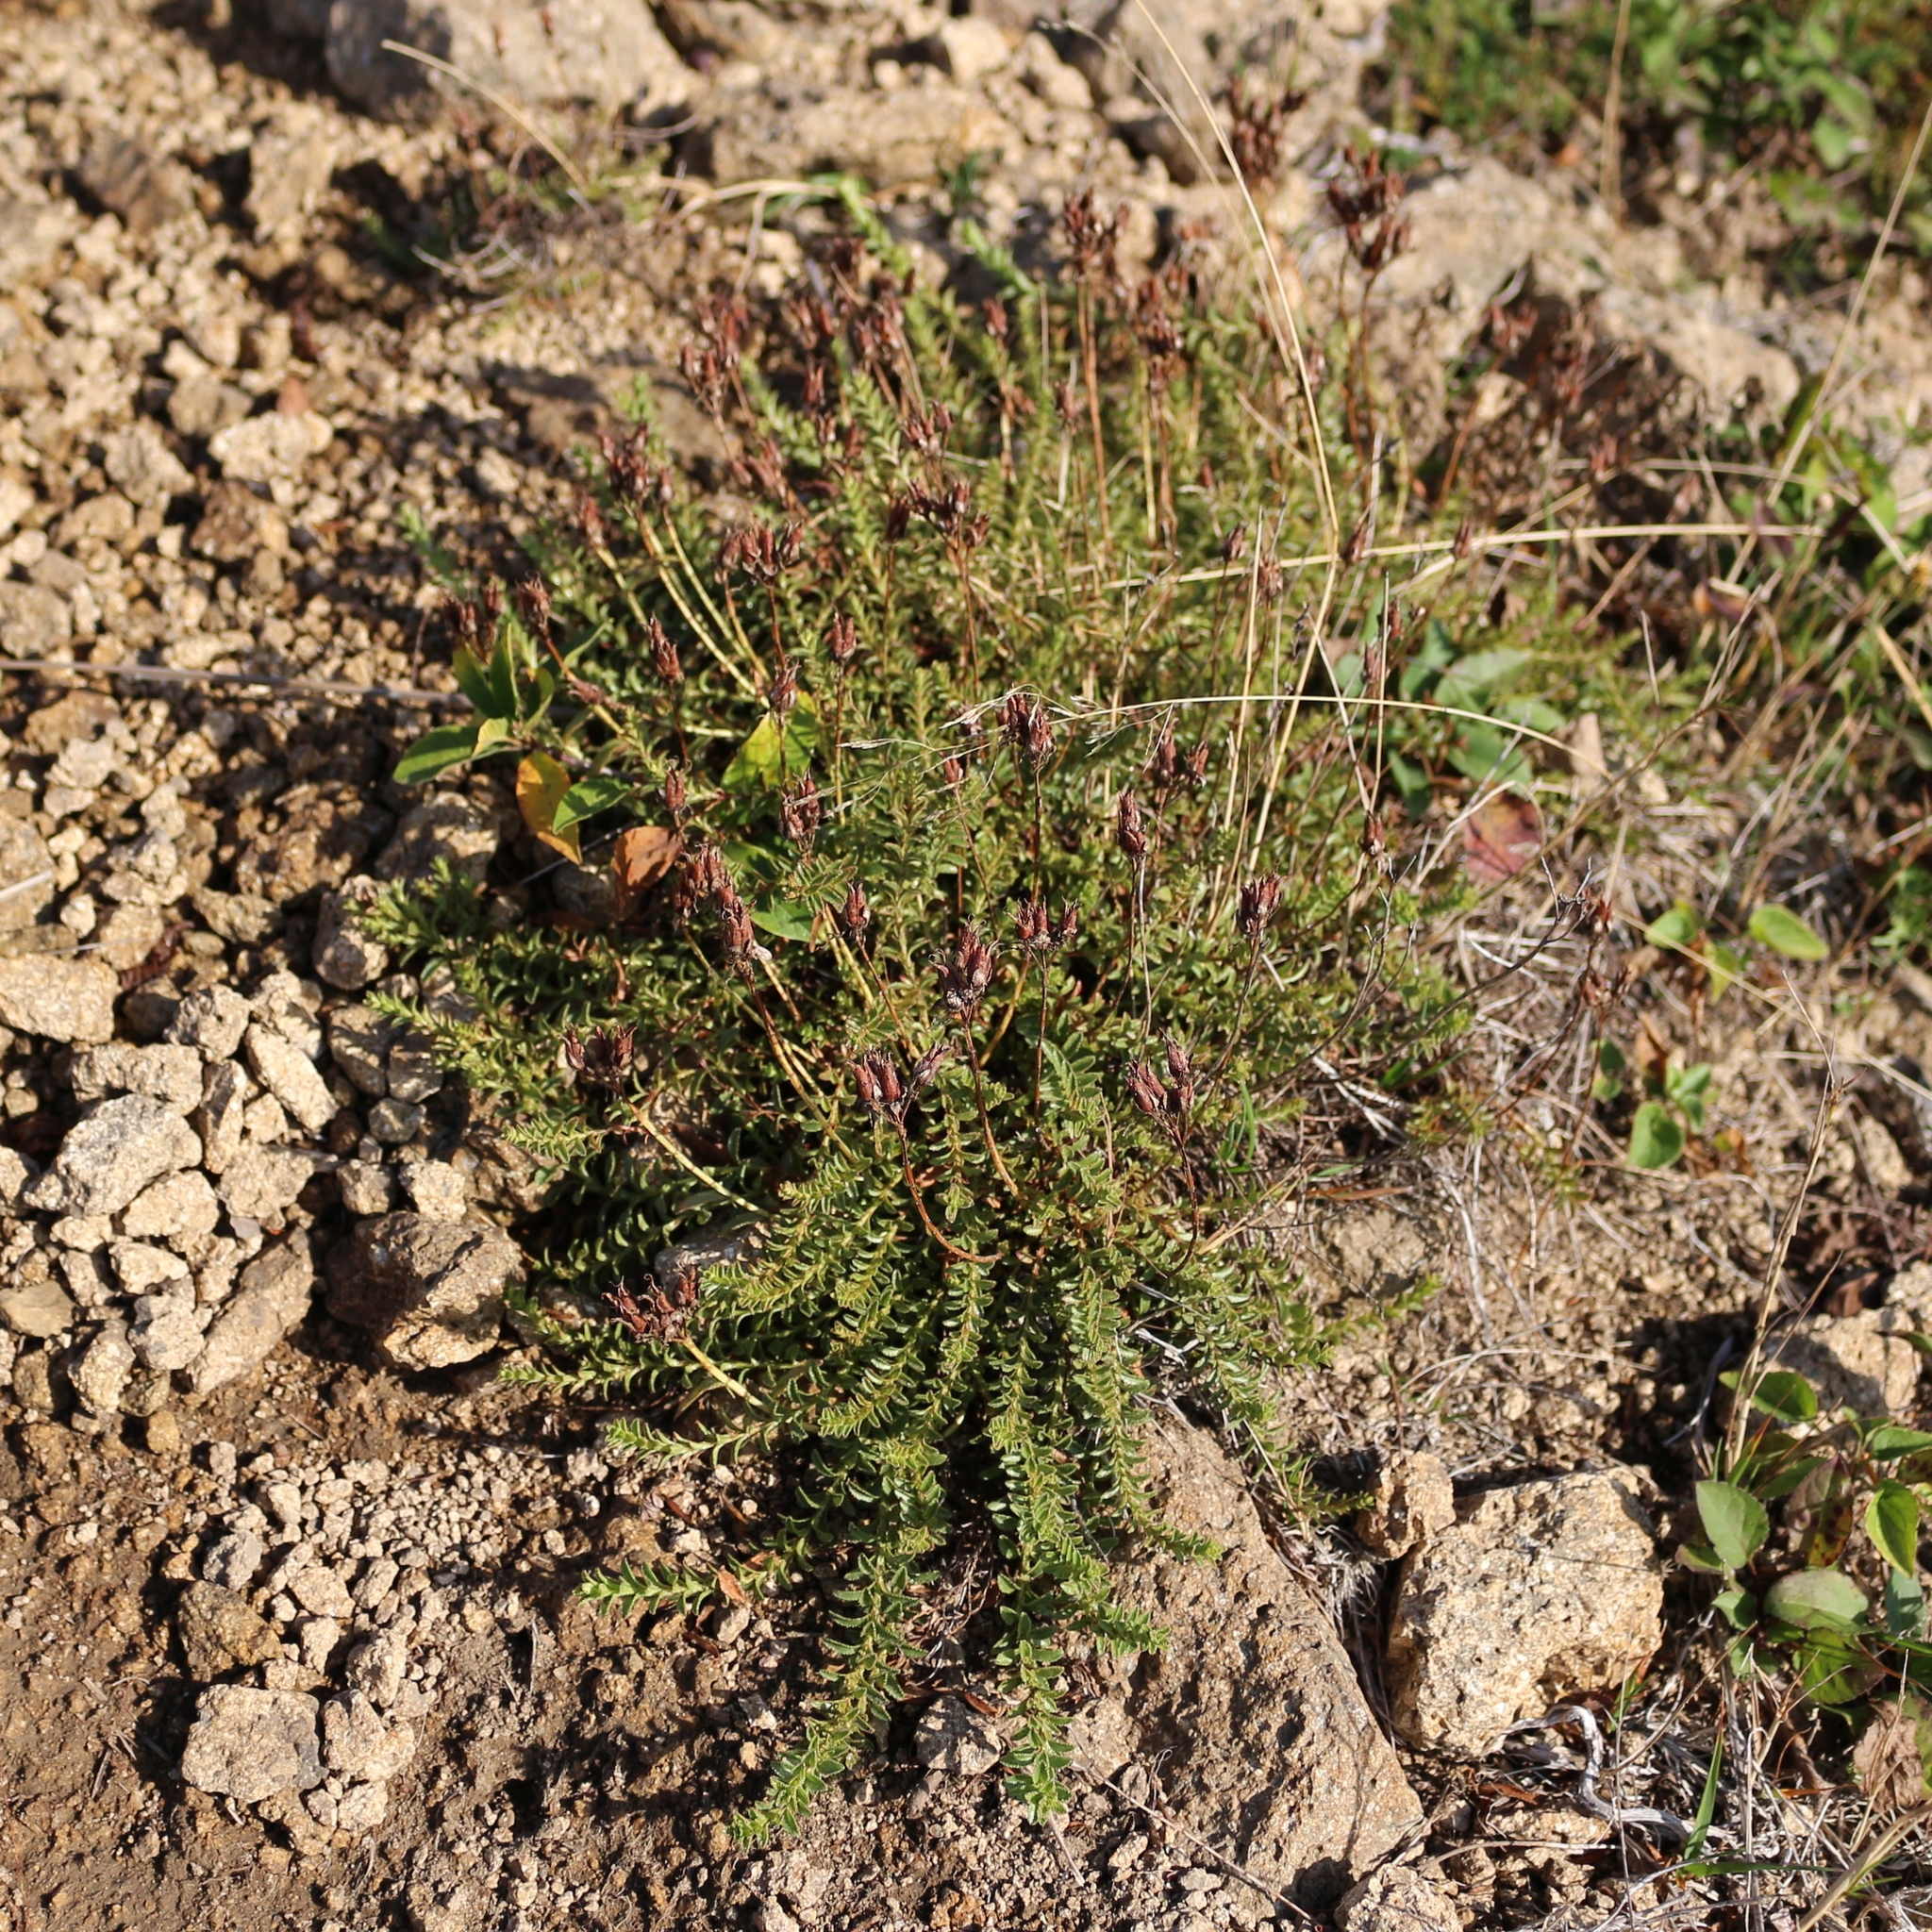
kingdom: Plantae
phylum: Tracheophyta
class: Magnoliopsida
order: Malpighiales
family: Hypericaceae
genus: Hypericum
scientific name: Hypericum orientale
